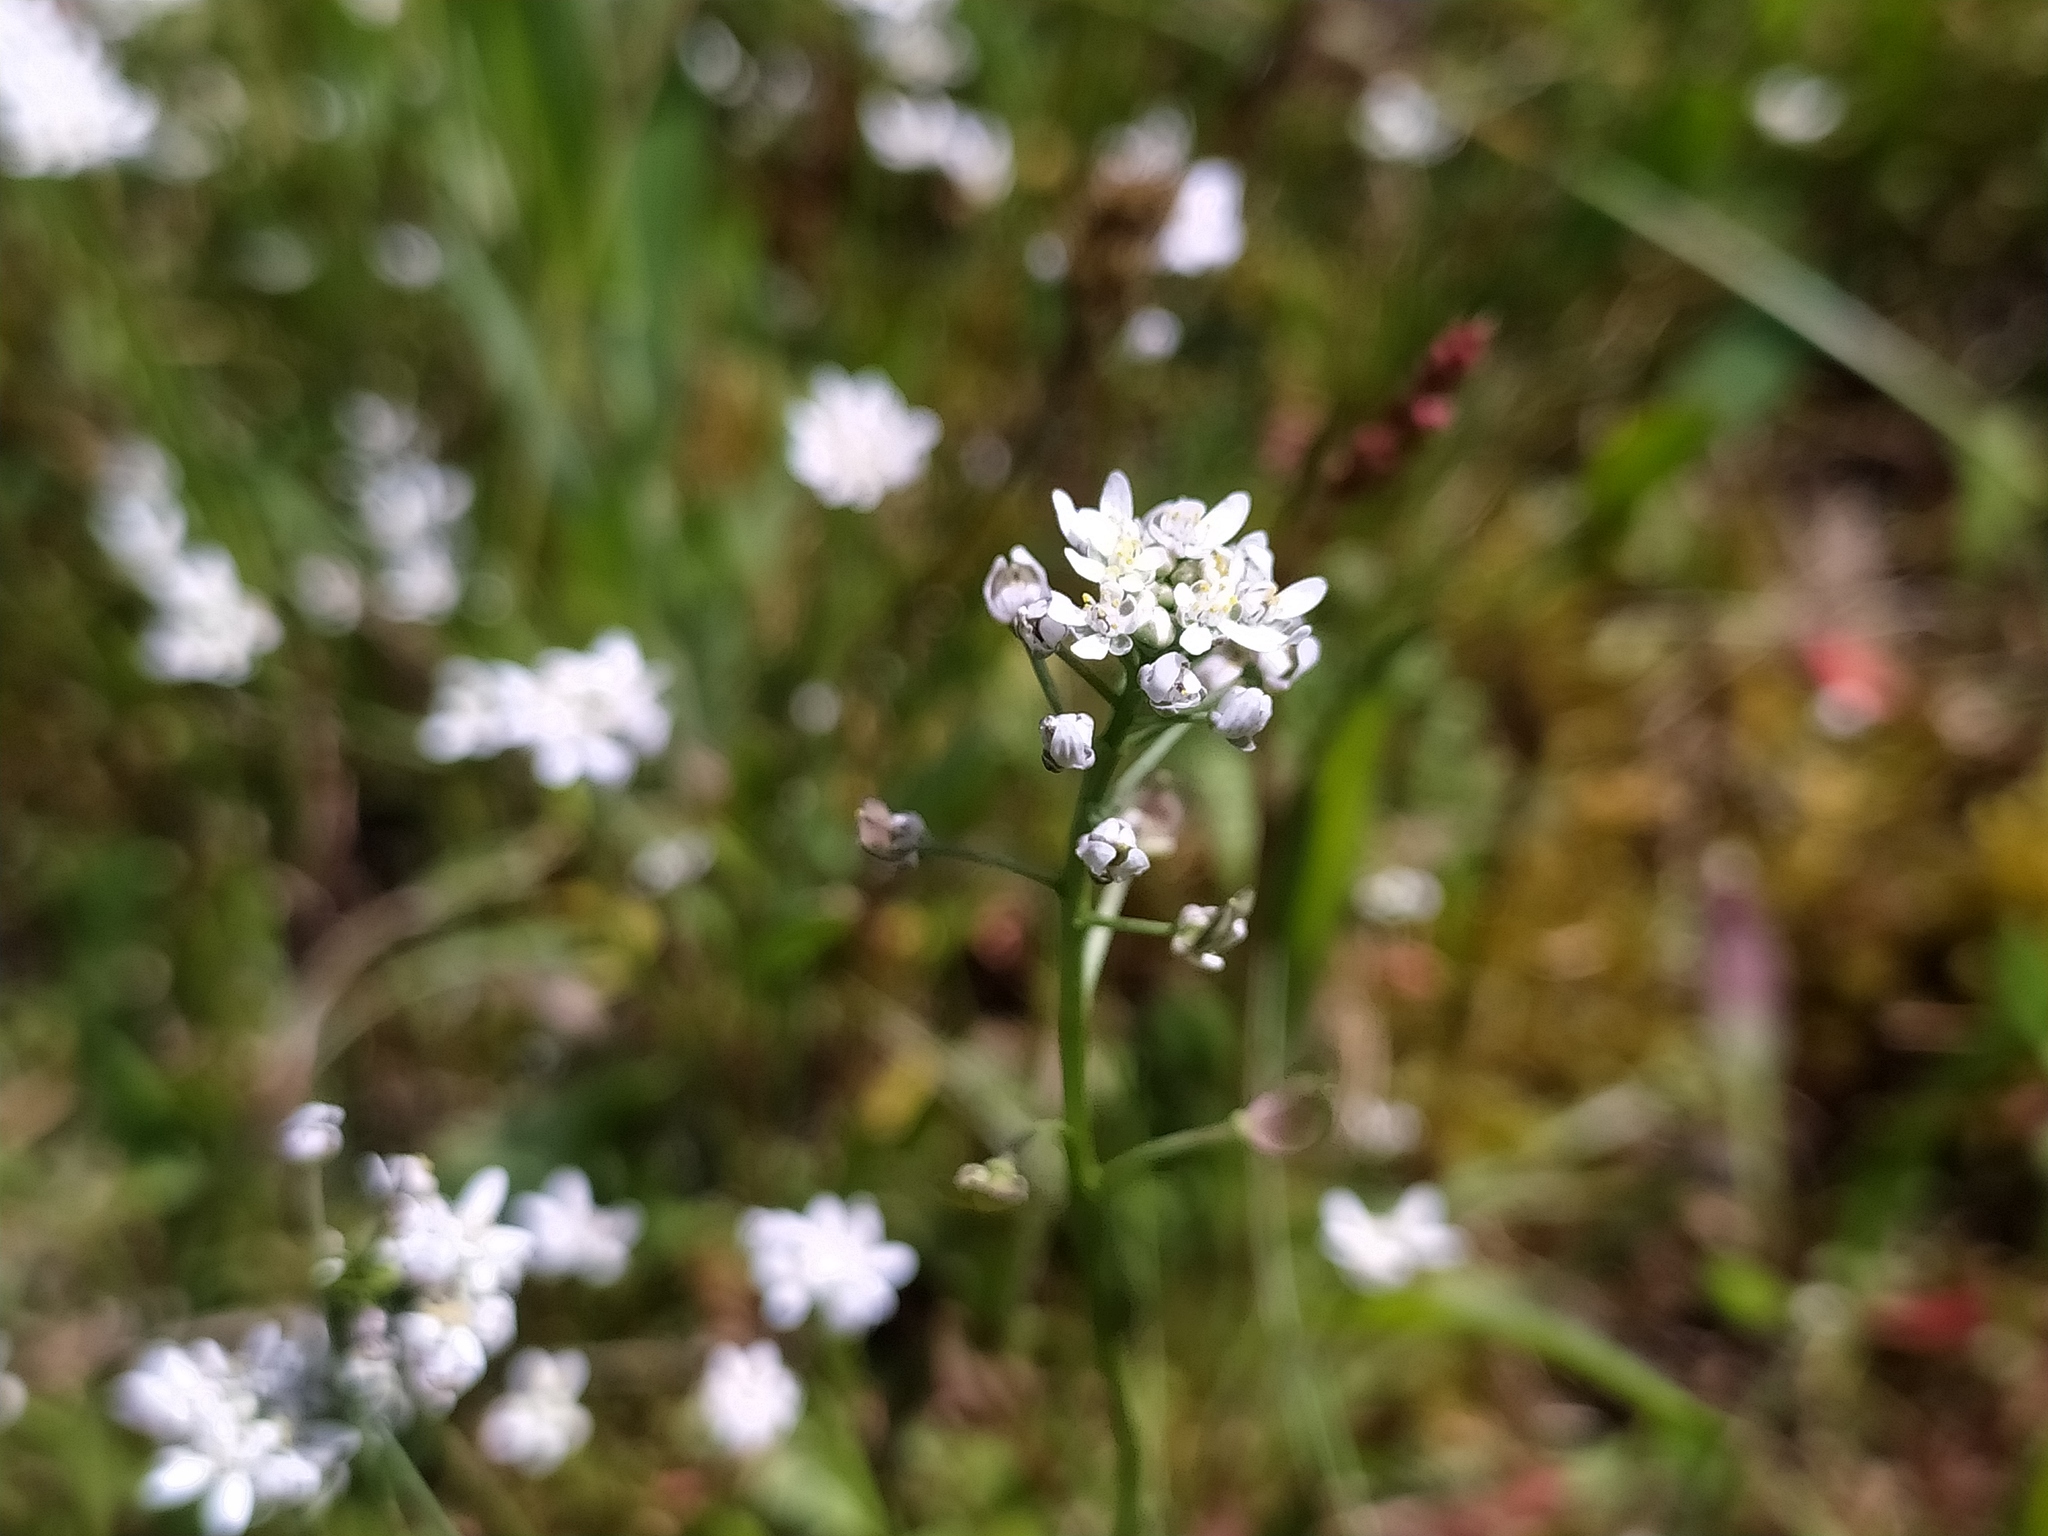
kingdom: Plantae
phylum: Tracheophyta
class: Magnoliopsida
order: Brassicales
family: Brassicaceae
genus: Teesdalia
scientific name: Teesdalia nudicaulis
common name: Shepherd's cress
